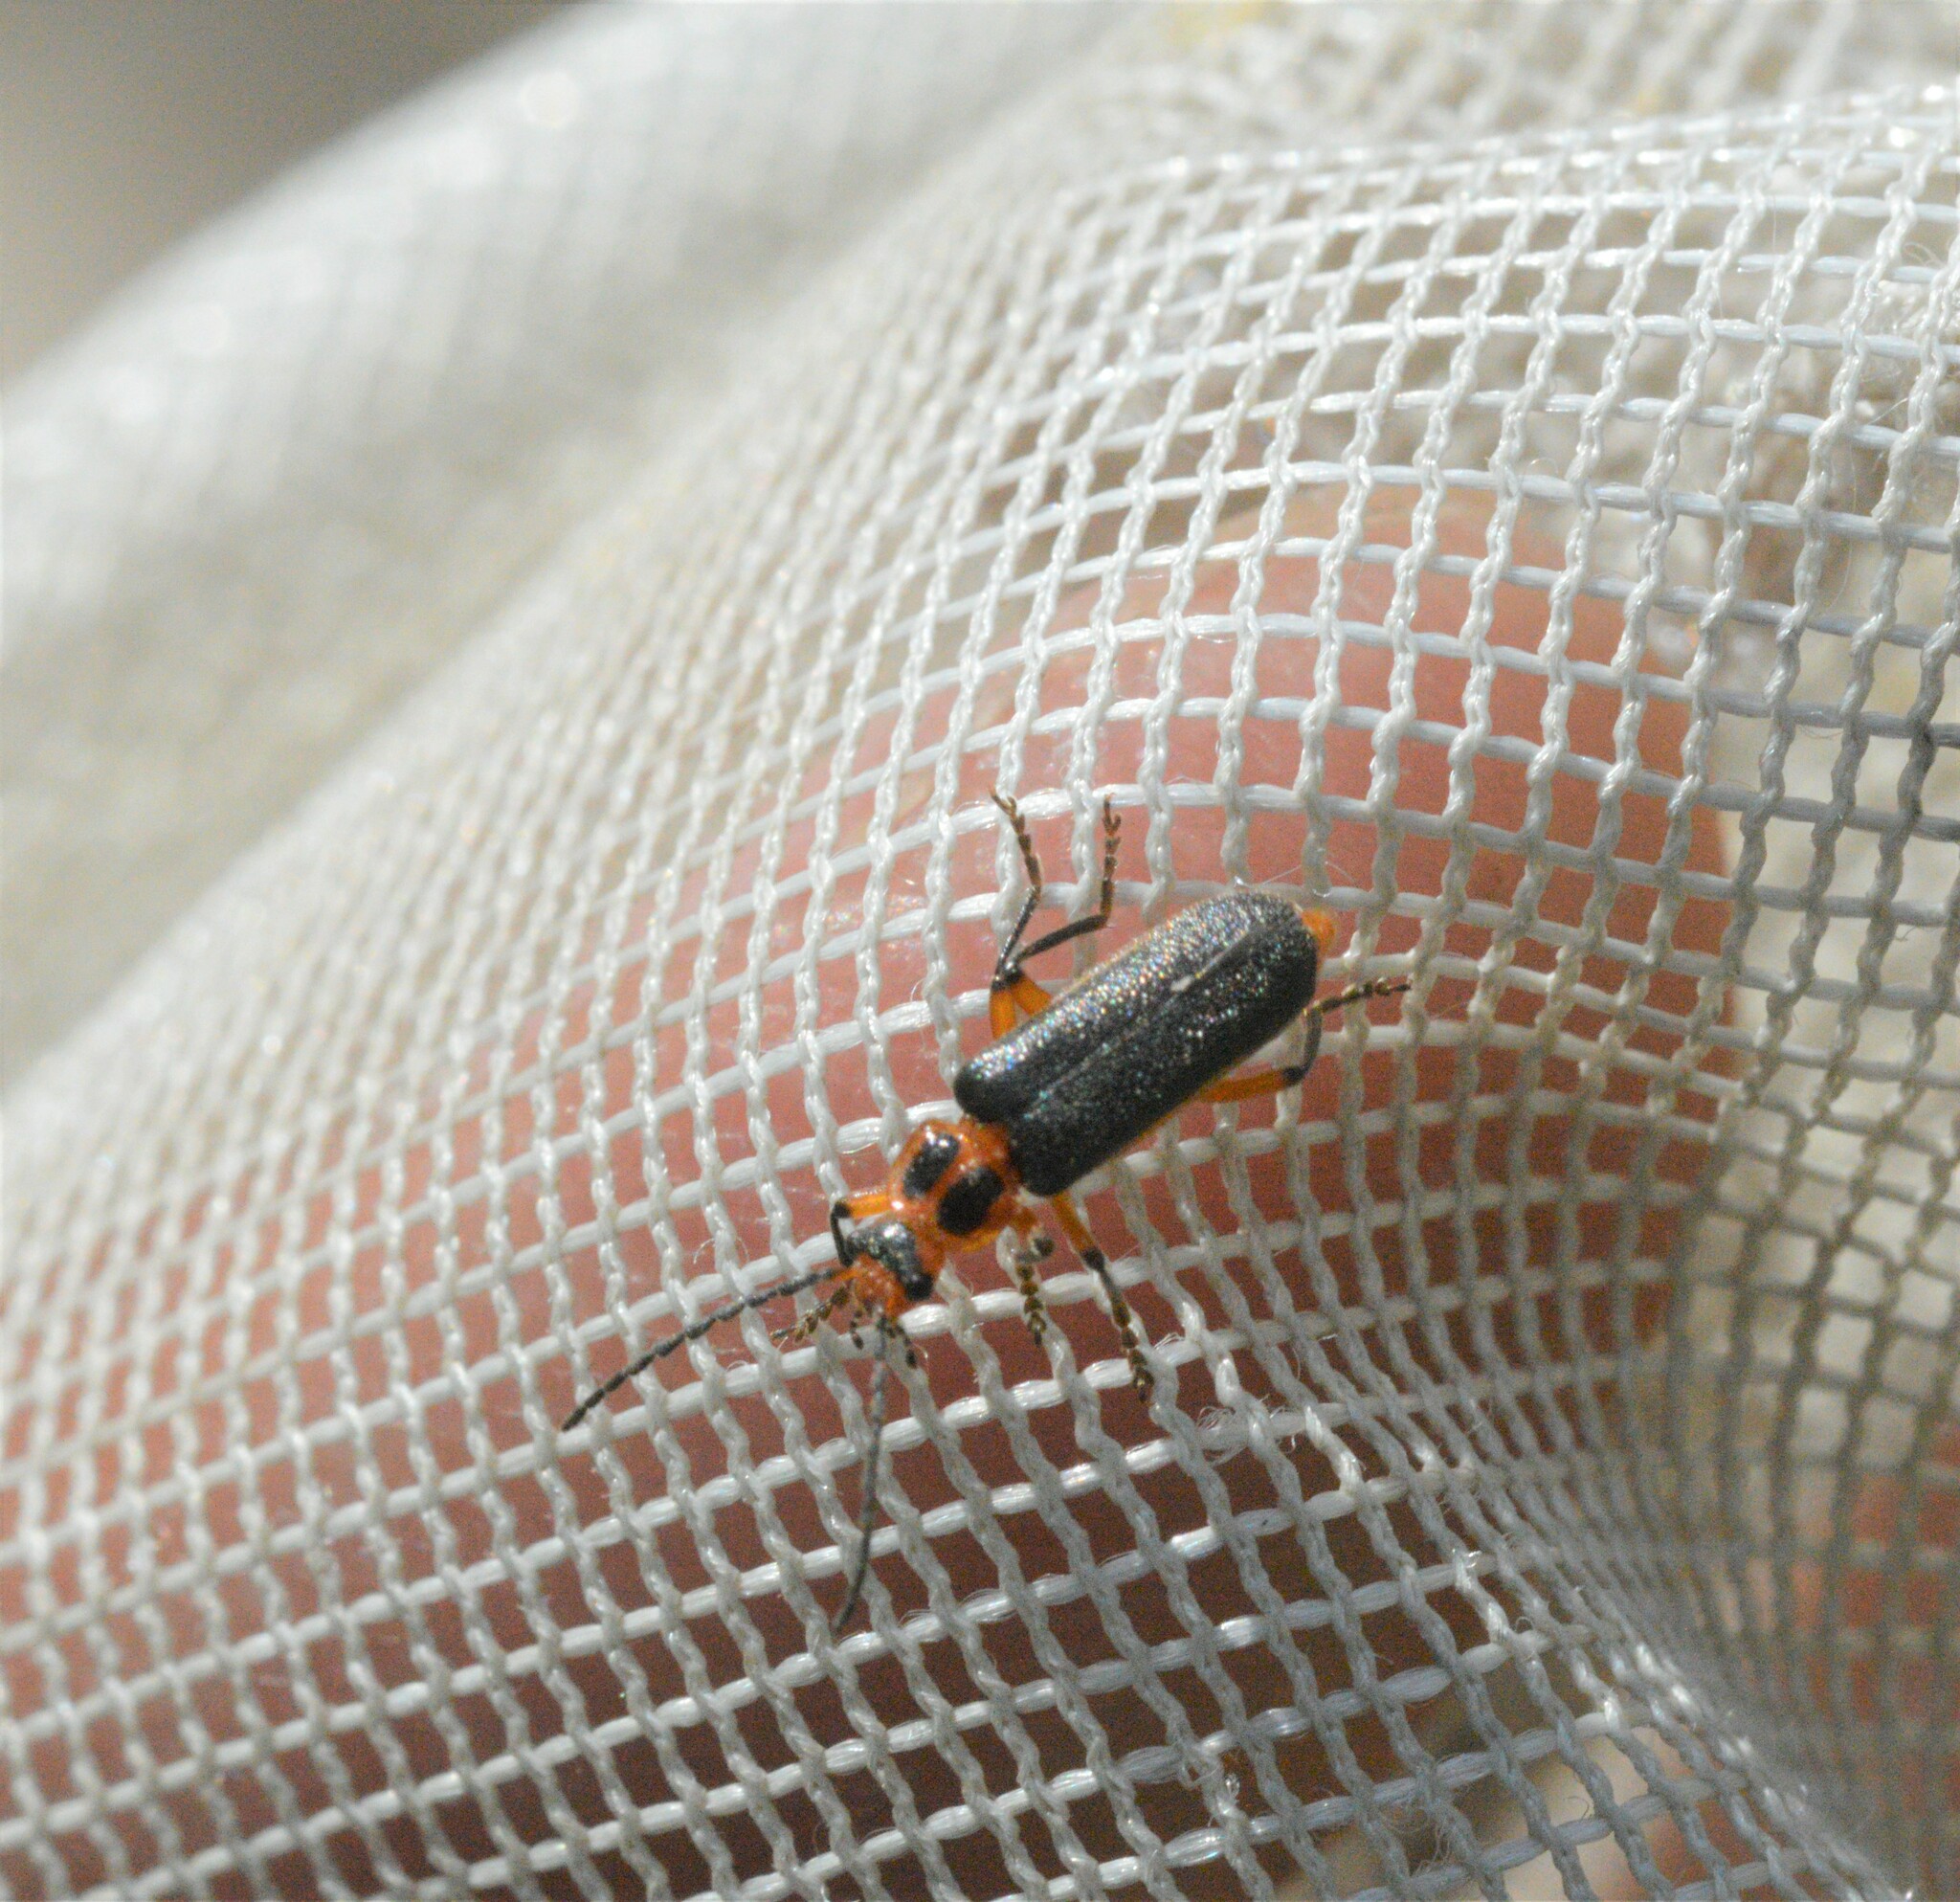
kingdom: Animalia
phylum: Arthropoda
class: Insecta
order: Coleoptera
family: Cantharidae
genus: Atalantycha
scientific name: Atalantycha bilineata
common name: Two-lined leatherwing
